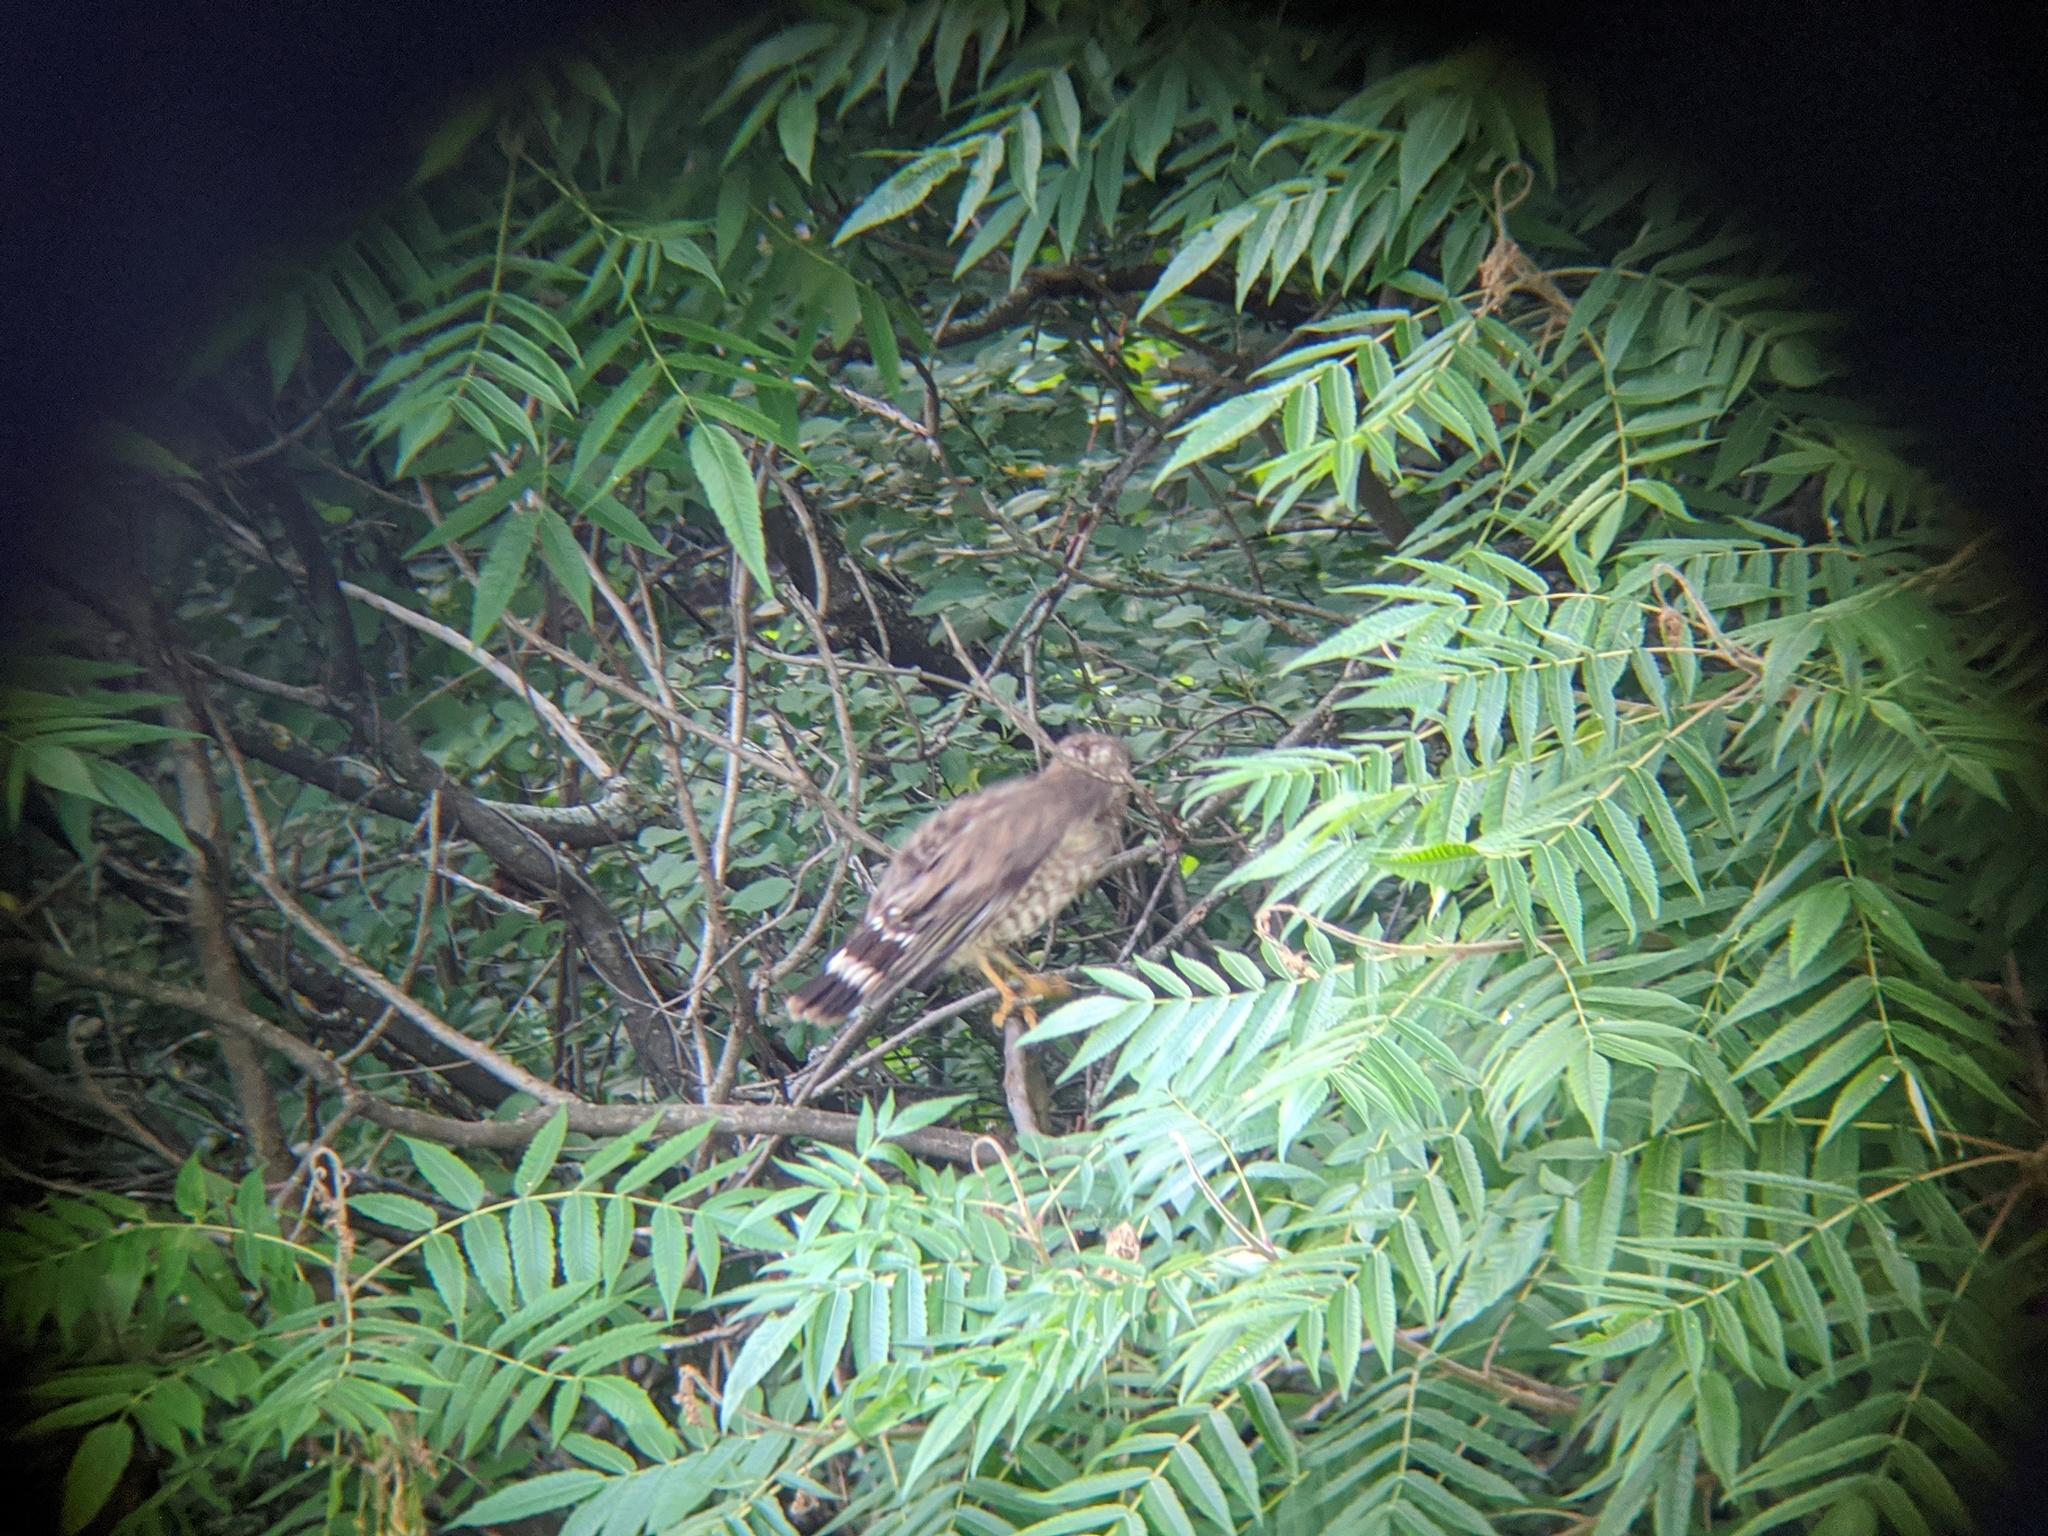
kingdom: Animalia
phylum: Chordata
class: Aves
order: Accipitriformes
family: Accipitridae
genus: Buteo
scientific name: Buteo platypterus
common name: Broad-winged hawk
